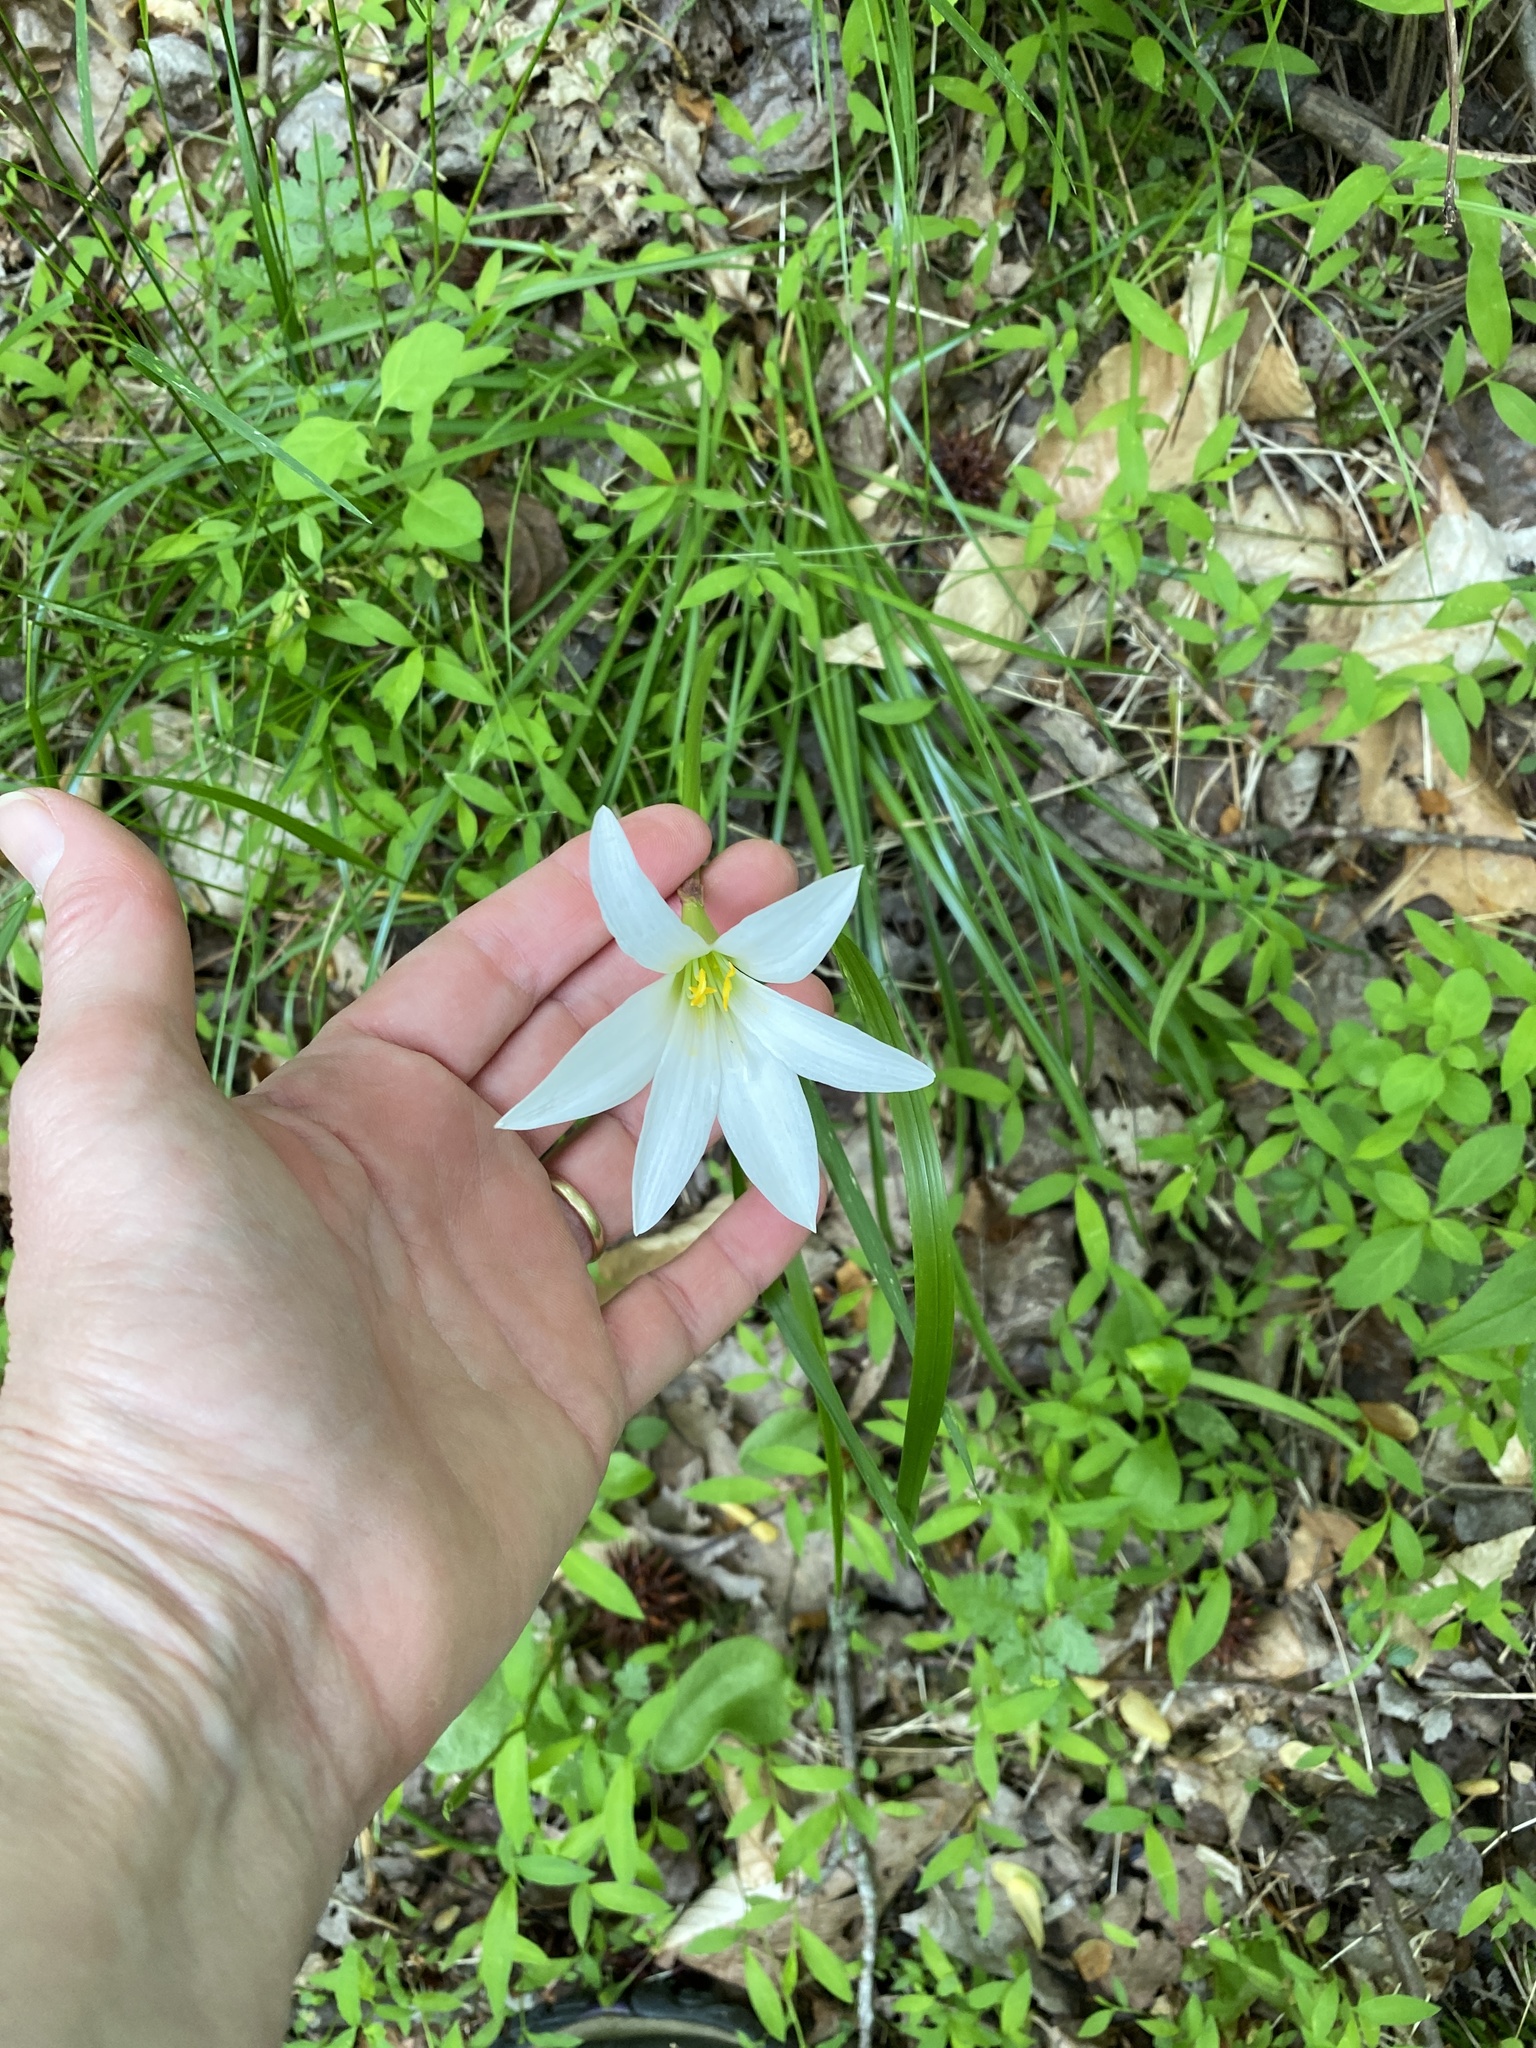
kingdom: Plantae
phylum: Tracheophyta
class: Liliopsida
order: Asparagales
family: Amaryllidaceae
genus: Zephyranthes
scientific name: Zephyranthes atamasco
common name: Atamasco lily
